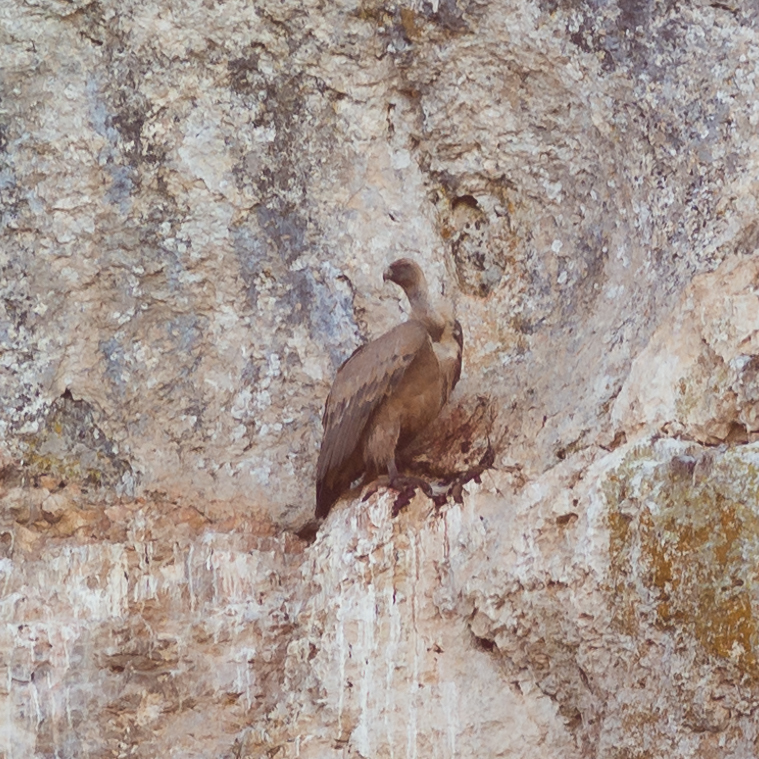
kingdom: Animalia
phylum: Chordata
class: Aves
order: Accipitriformes
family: Accipitridae
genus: Gyps
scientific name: Gyps fulvus
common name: Griffon vulture
